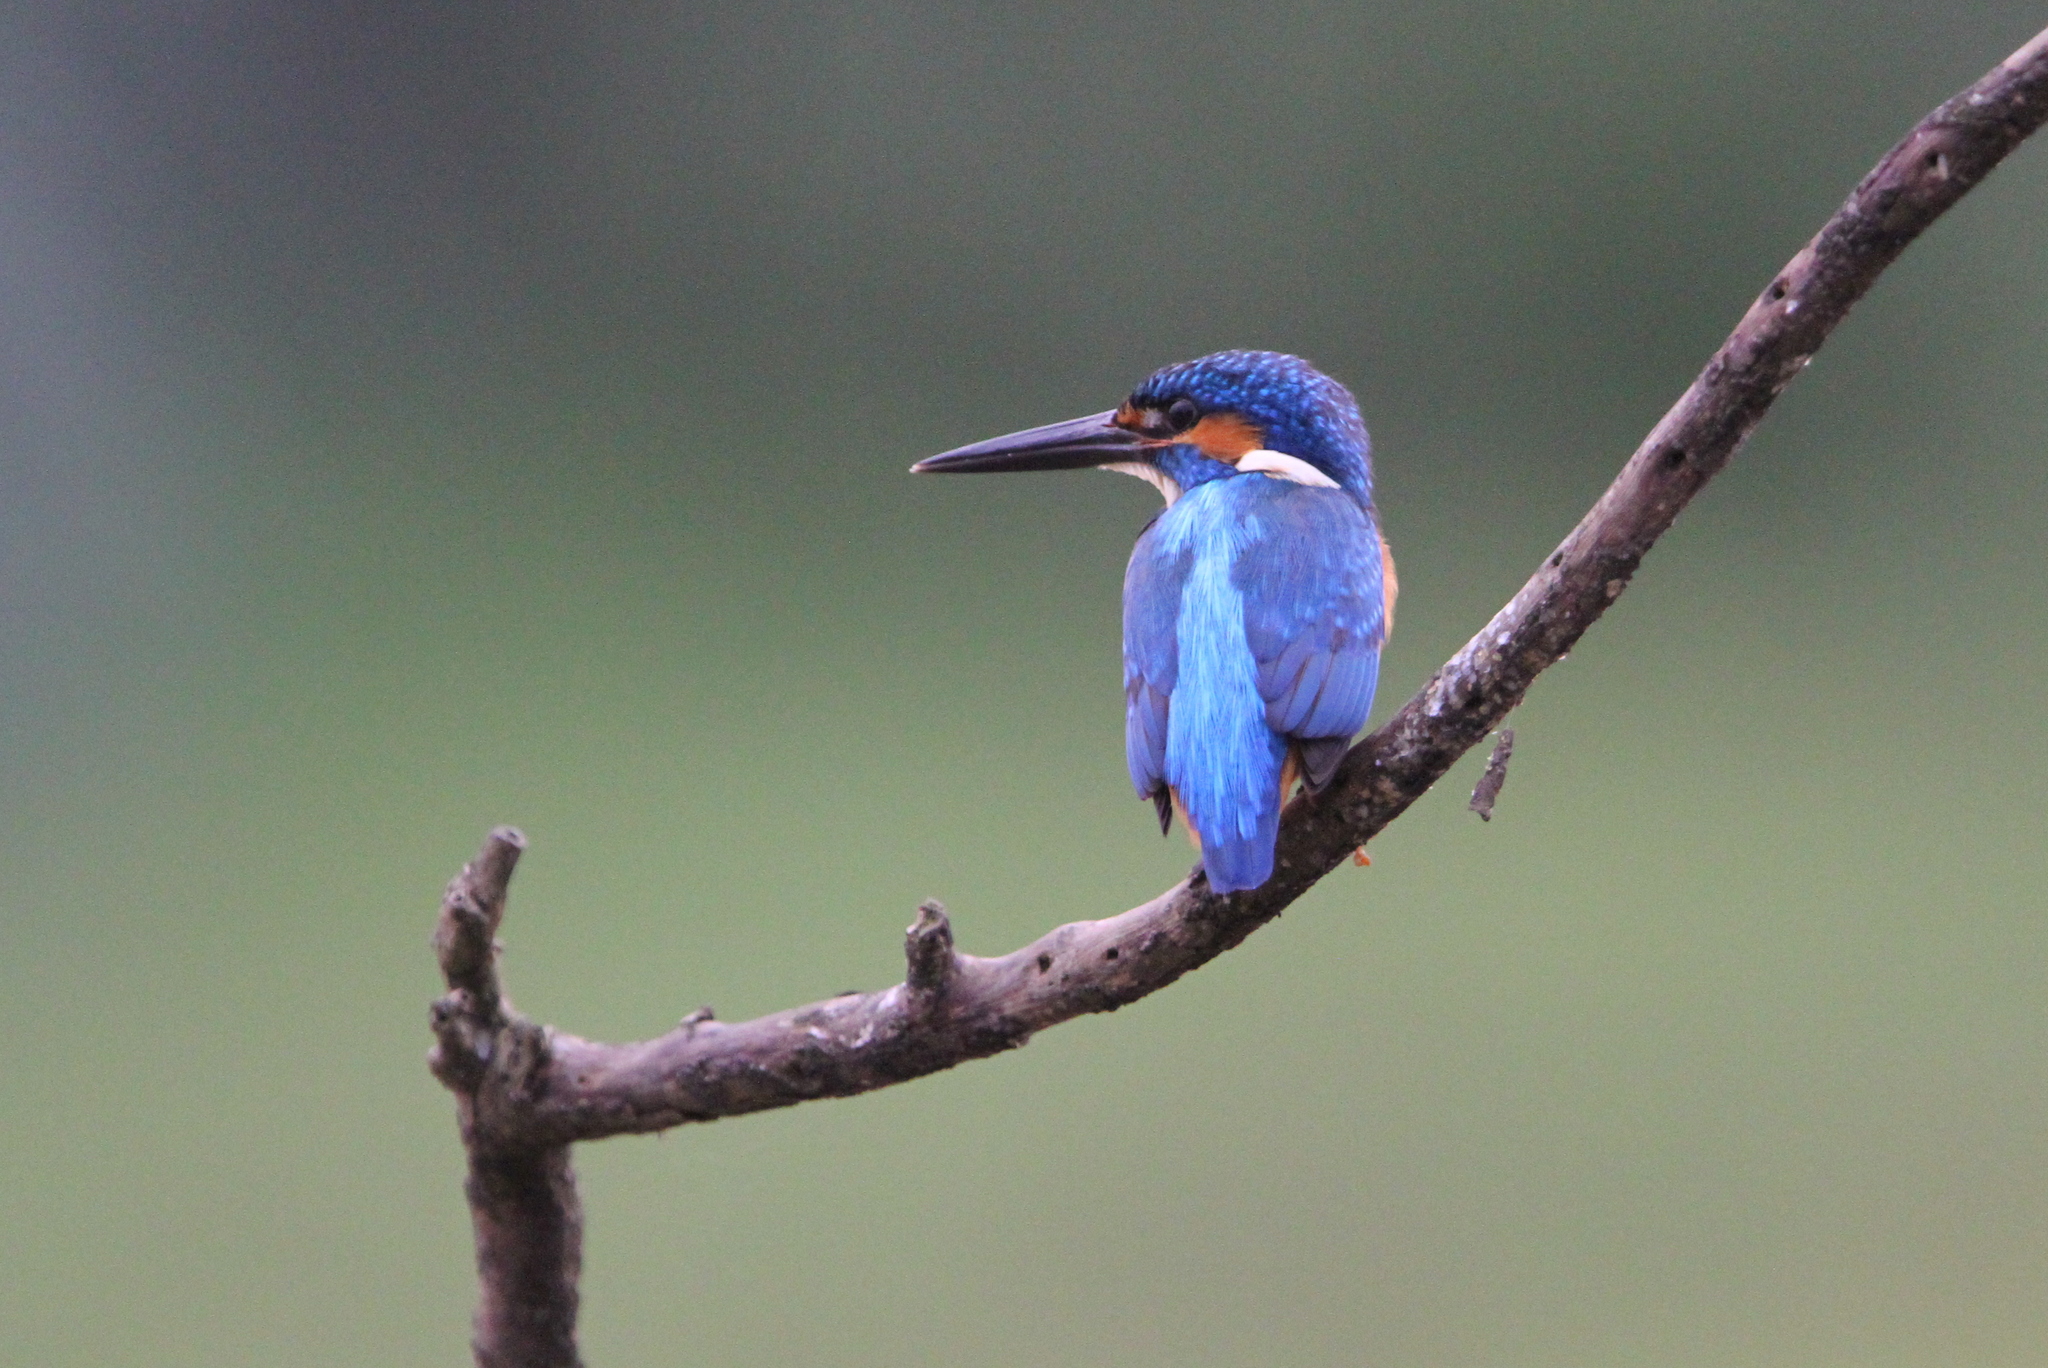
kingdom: Animalia
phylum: Chordata
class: Aves
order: Coraciiformes
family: Alcedinidae
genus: Alcedo
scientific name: Alcedo atthis
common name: Common kingfisher
